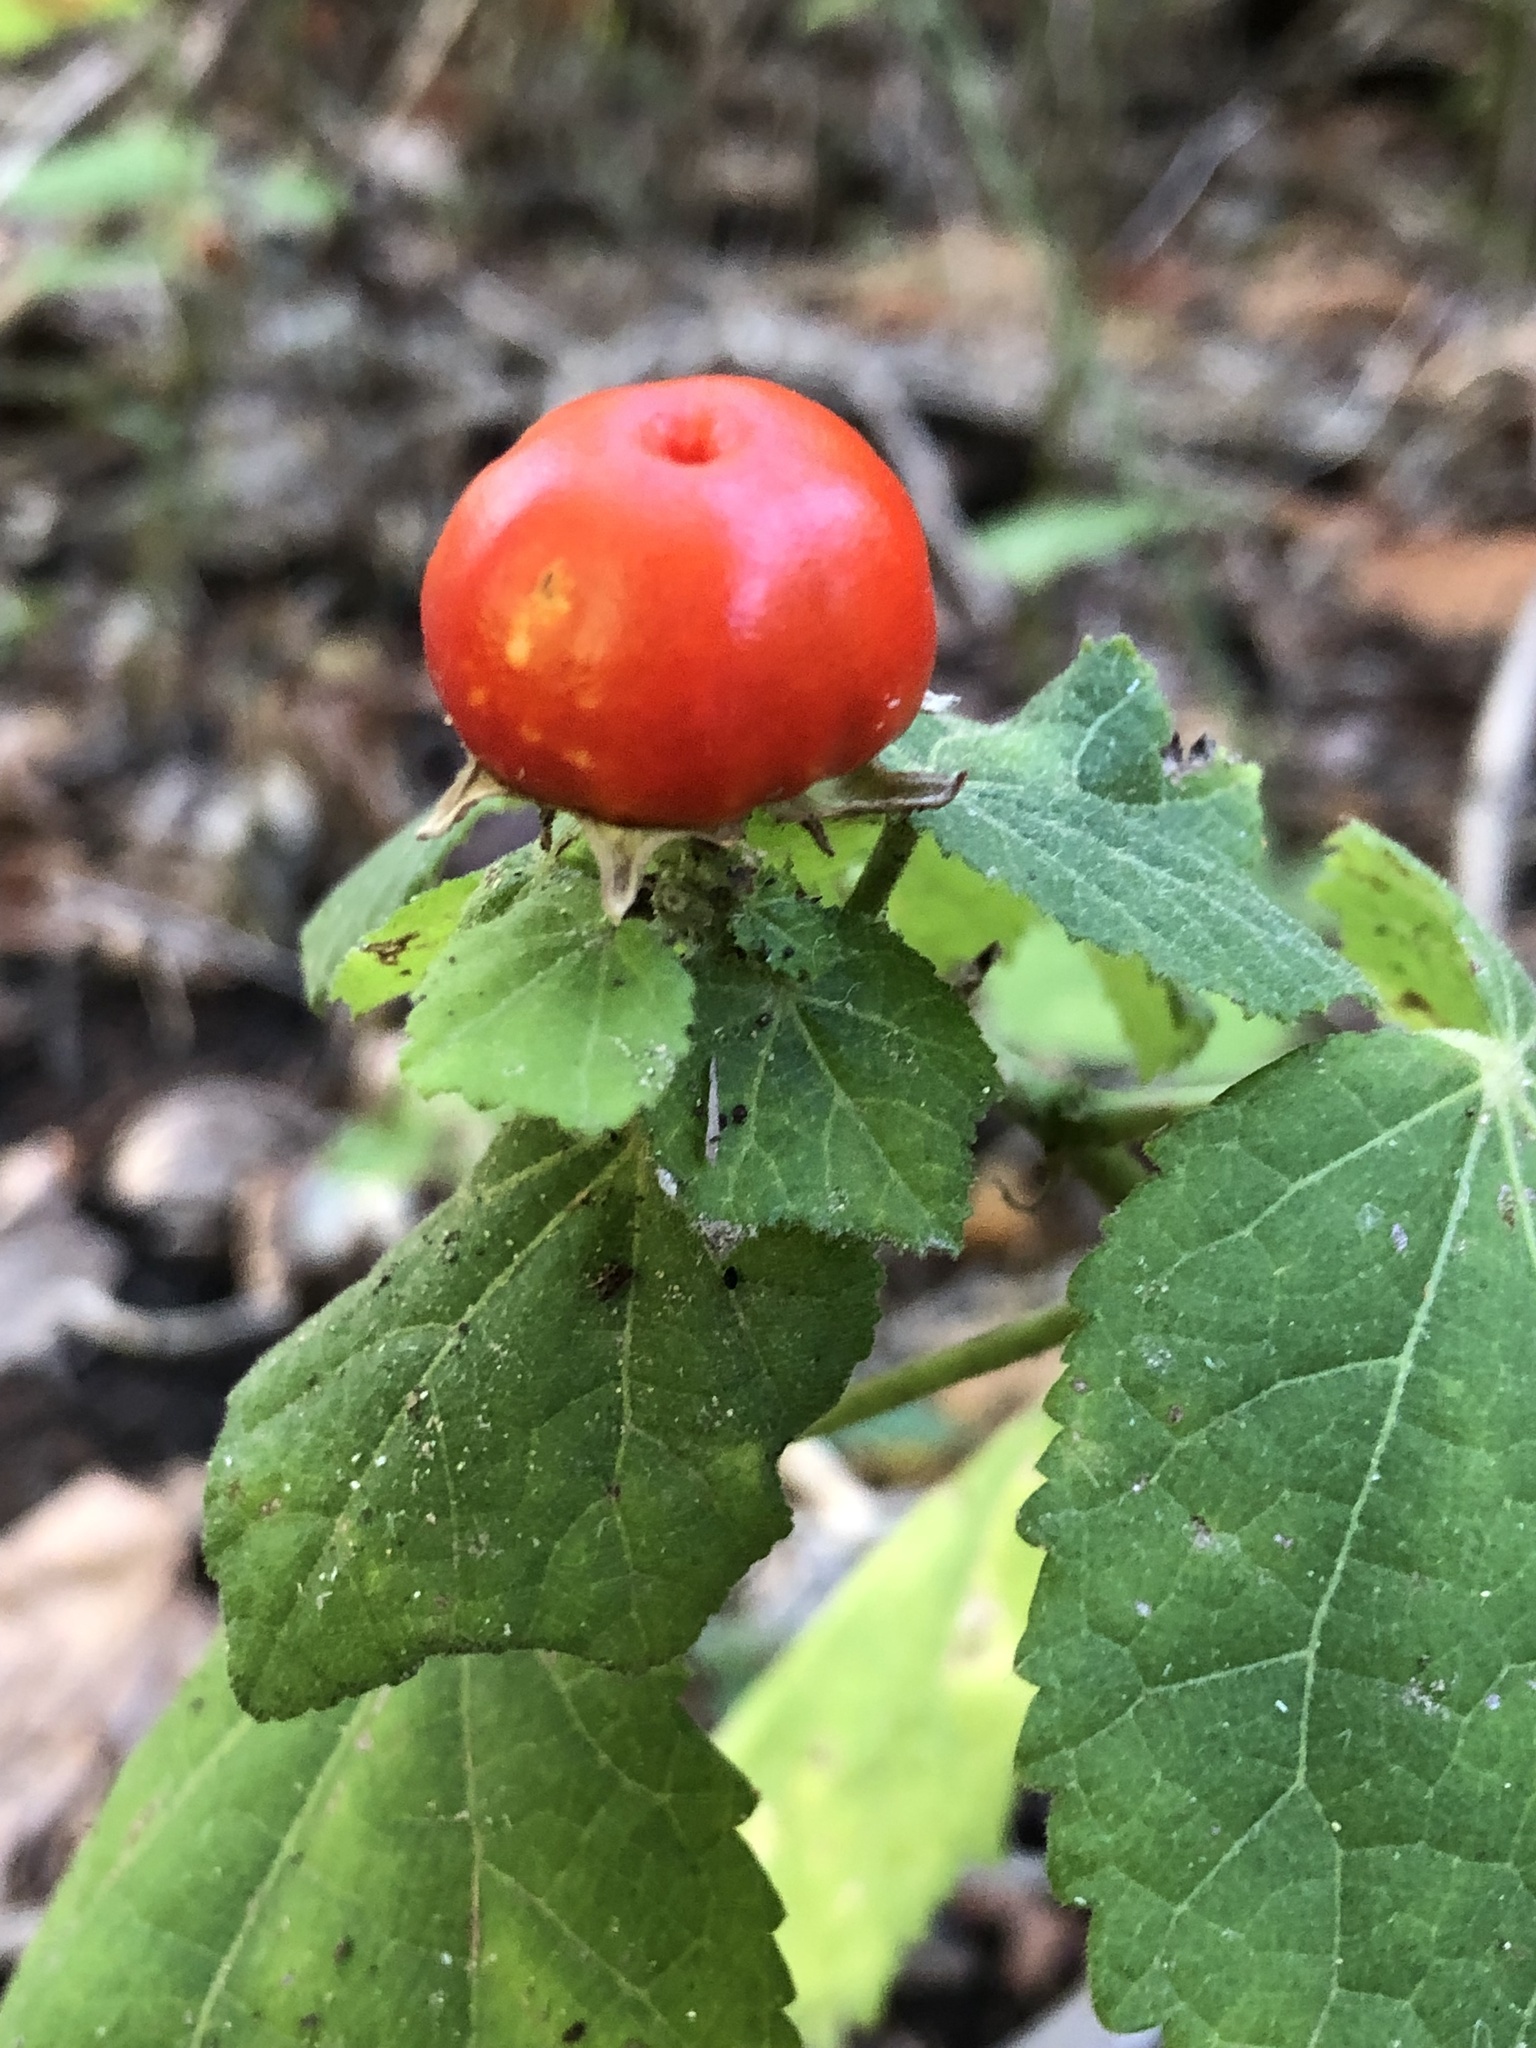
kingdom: Plantae
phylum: Tracheophyta
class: Magnoliopsida
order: Malvales
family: Malvaceae
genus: Malvaviscus
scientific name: Malvaviscus arboreus
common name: Wax mallow
